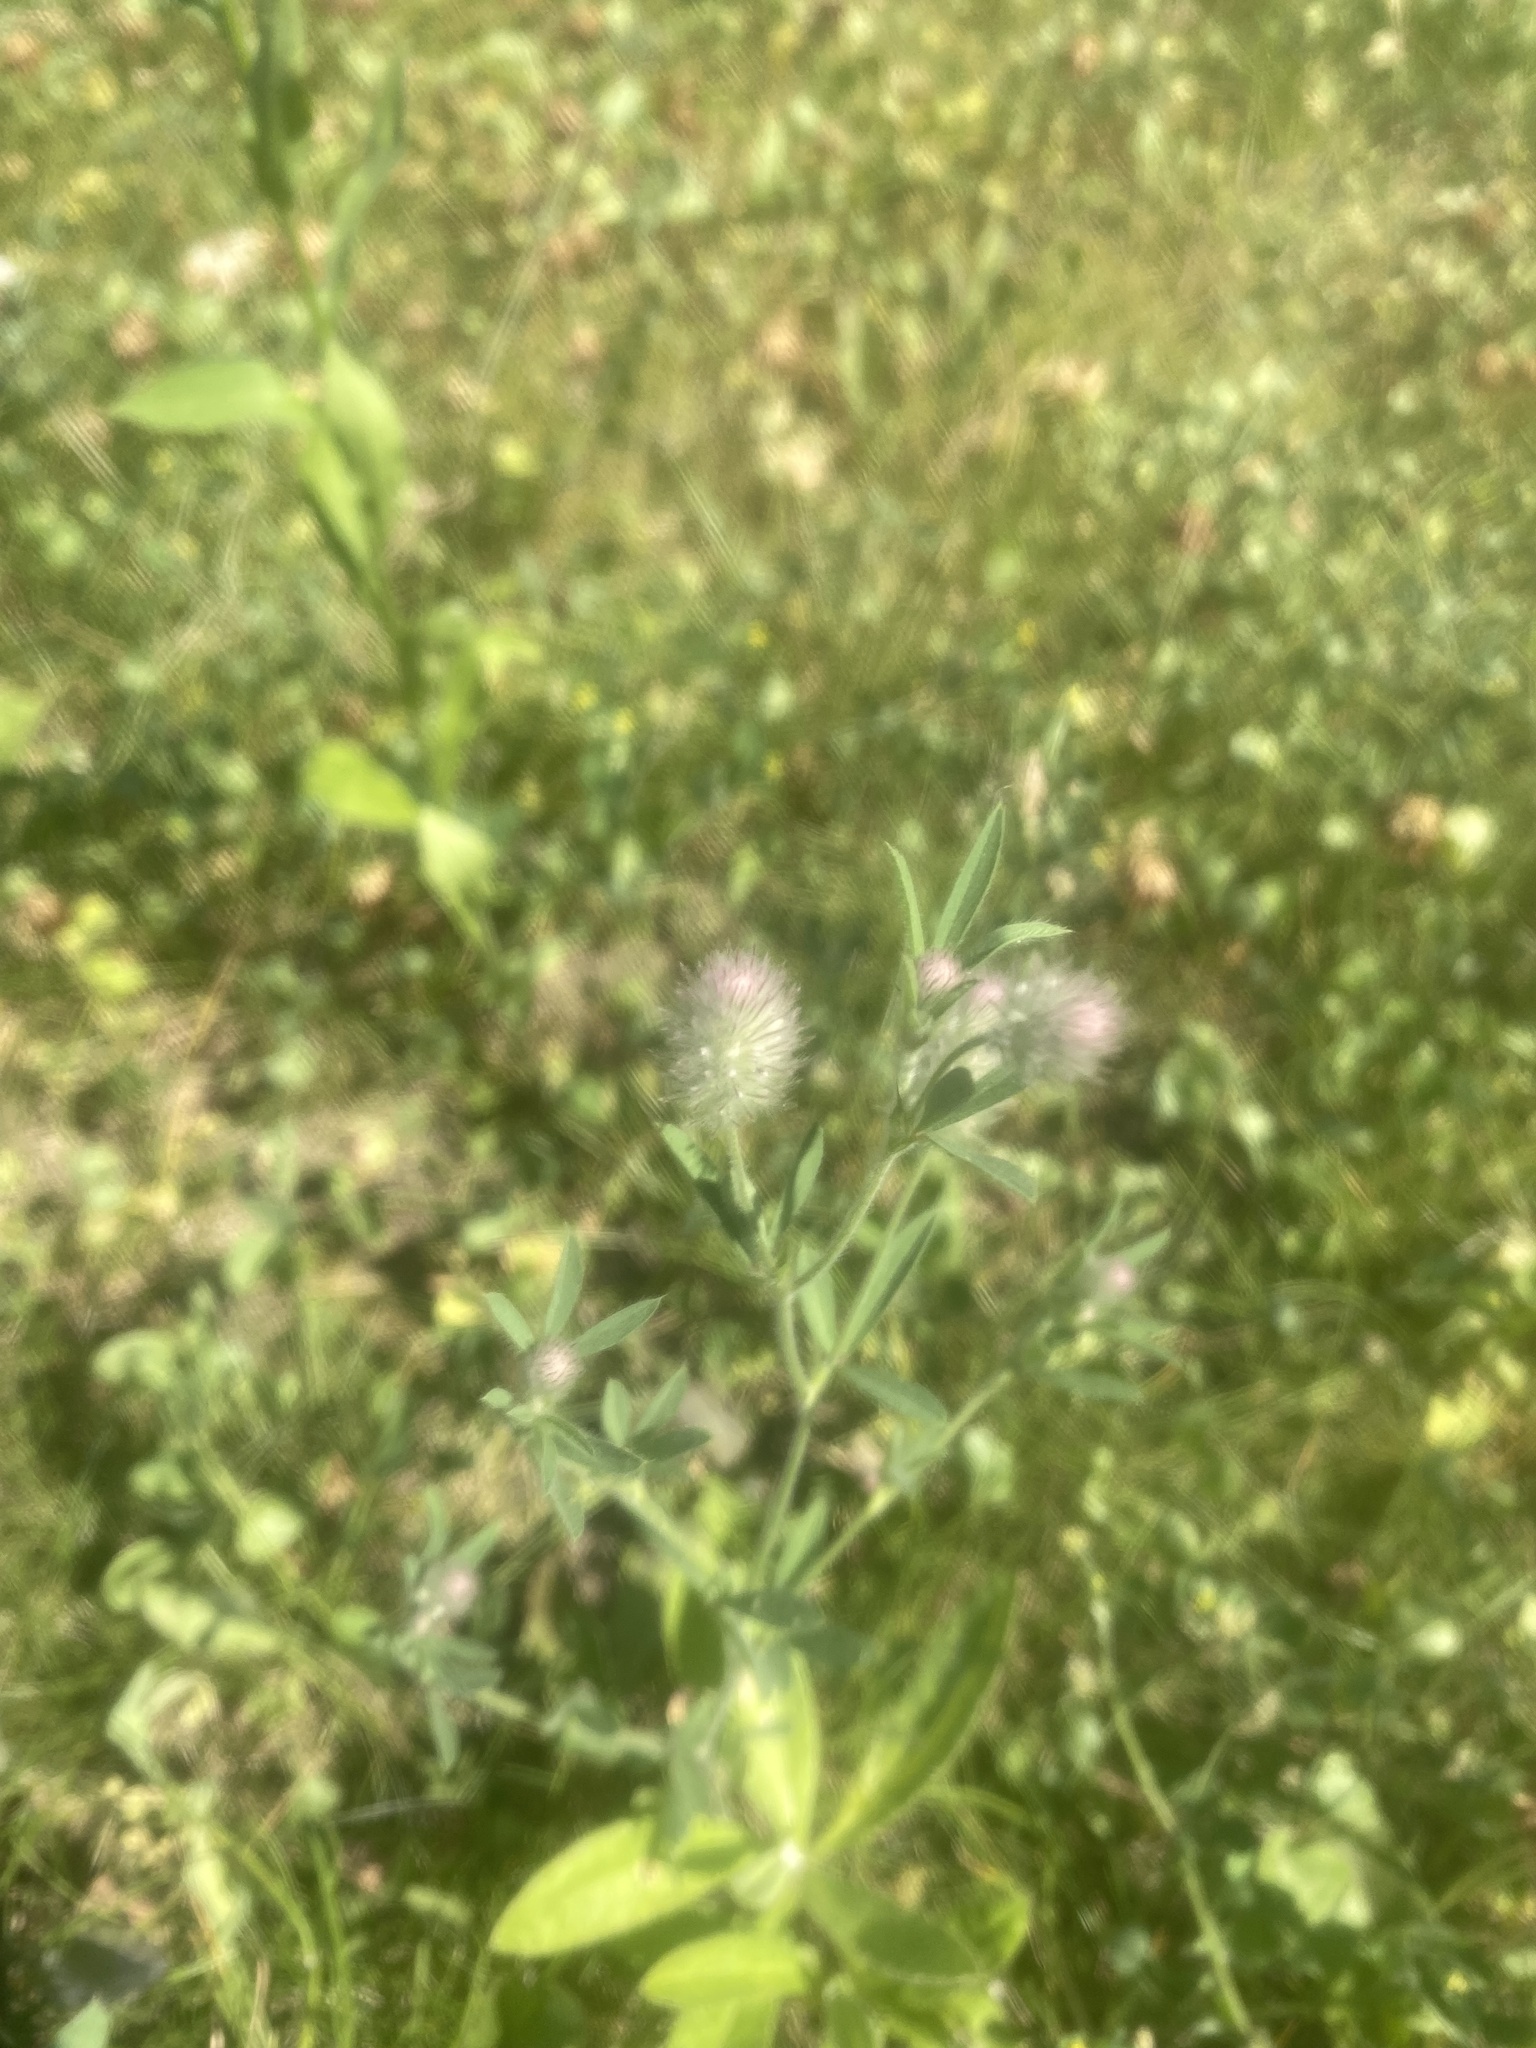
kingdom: Plantae
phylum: Tracheophyta
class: Magnoliopsida
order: Fabales
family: Fabaceae
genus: Trifolium
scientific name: Trifolium arvense
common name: Hare's-foot clover
